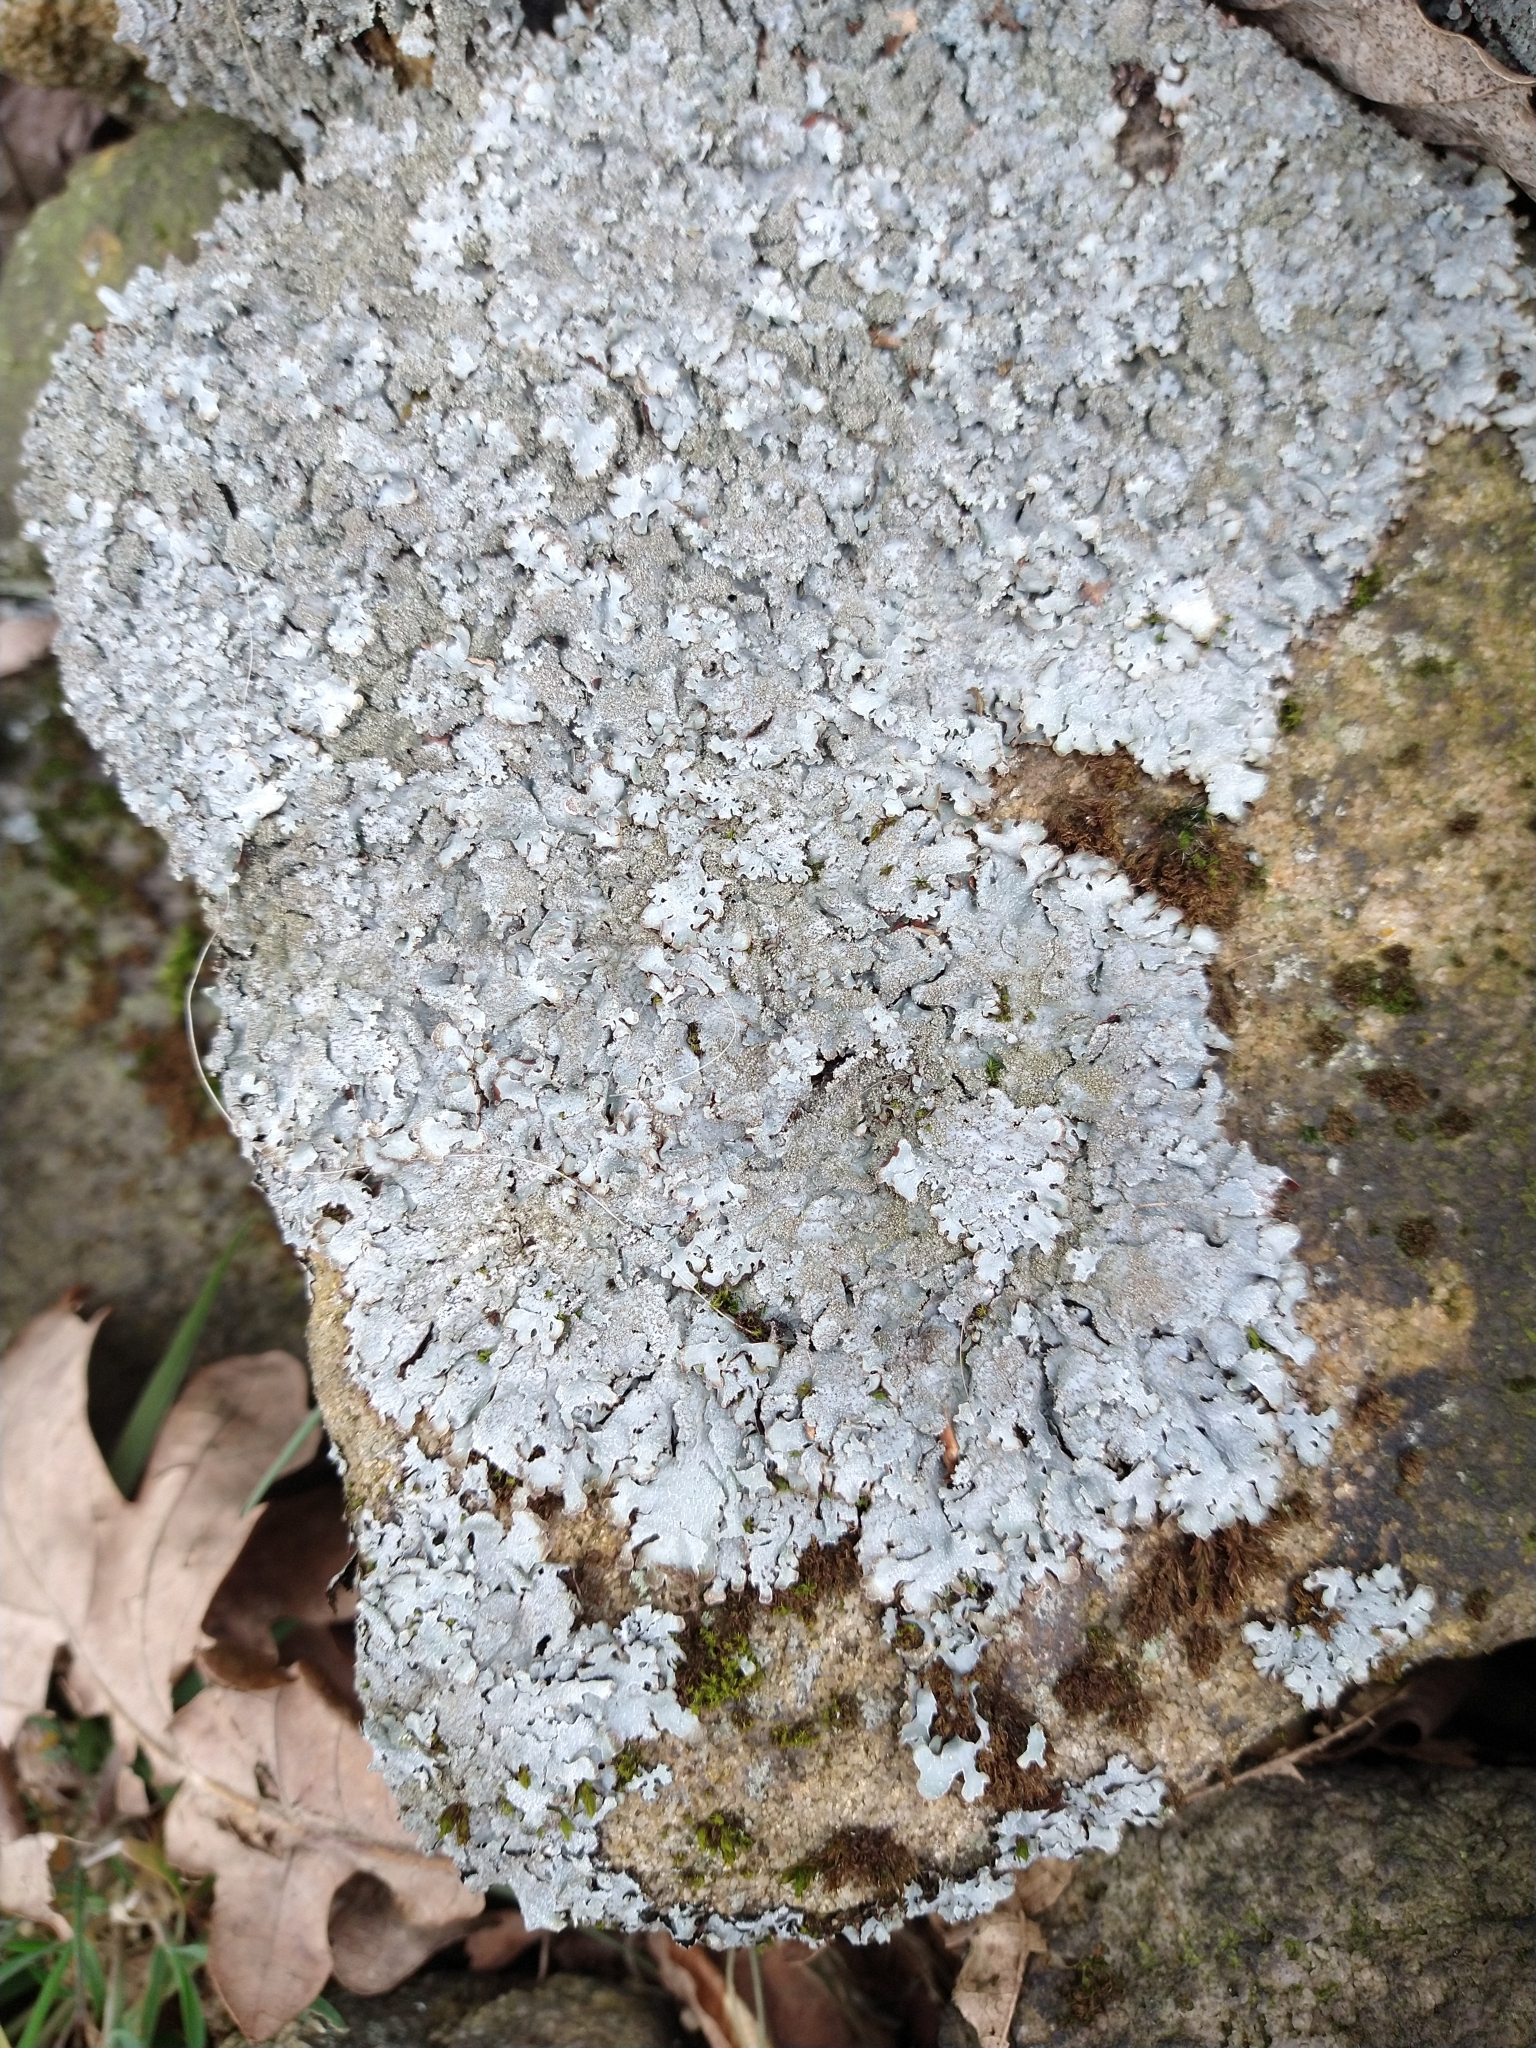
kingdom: Fungi
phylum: Ascomycota
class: Lecanoromycetes
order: Lecanorales
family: Parmeliaceae
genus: Parmelia
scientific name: Parmelia saxatilis
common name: Salted shield lichen
